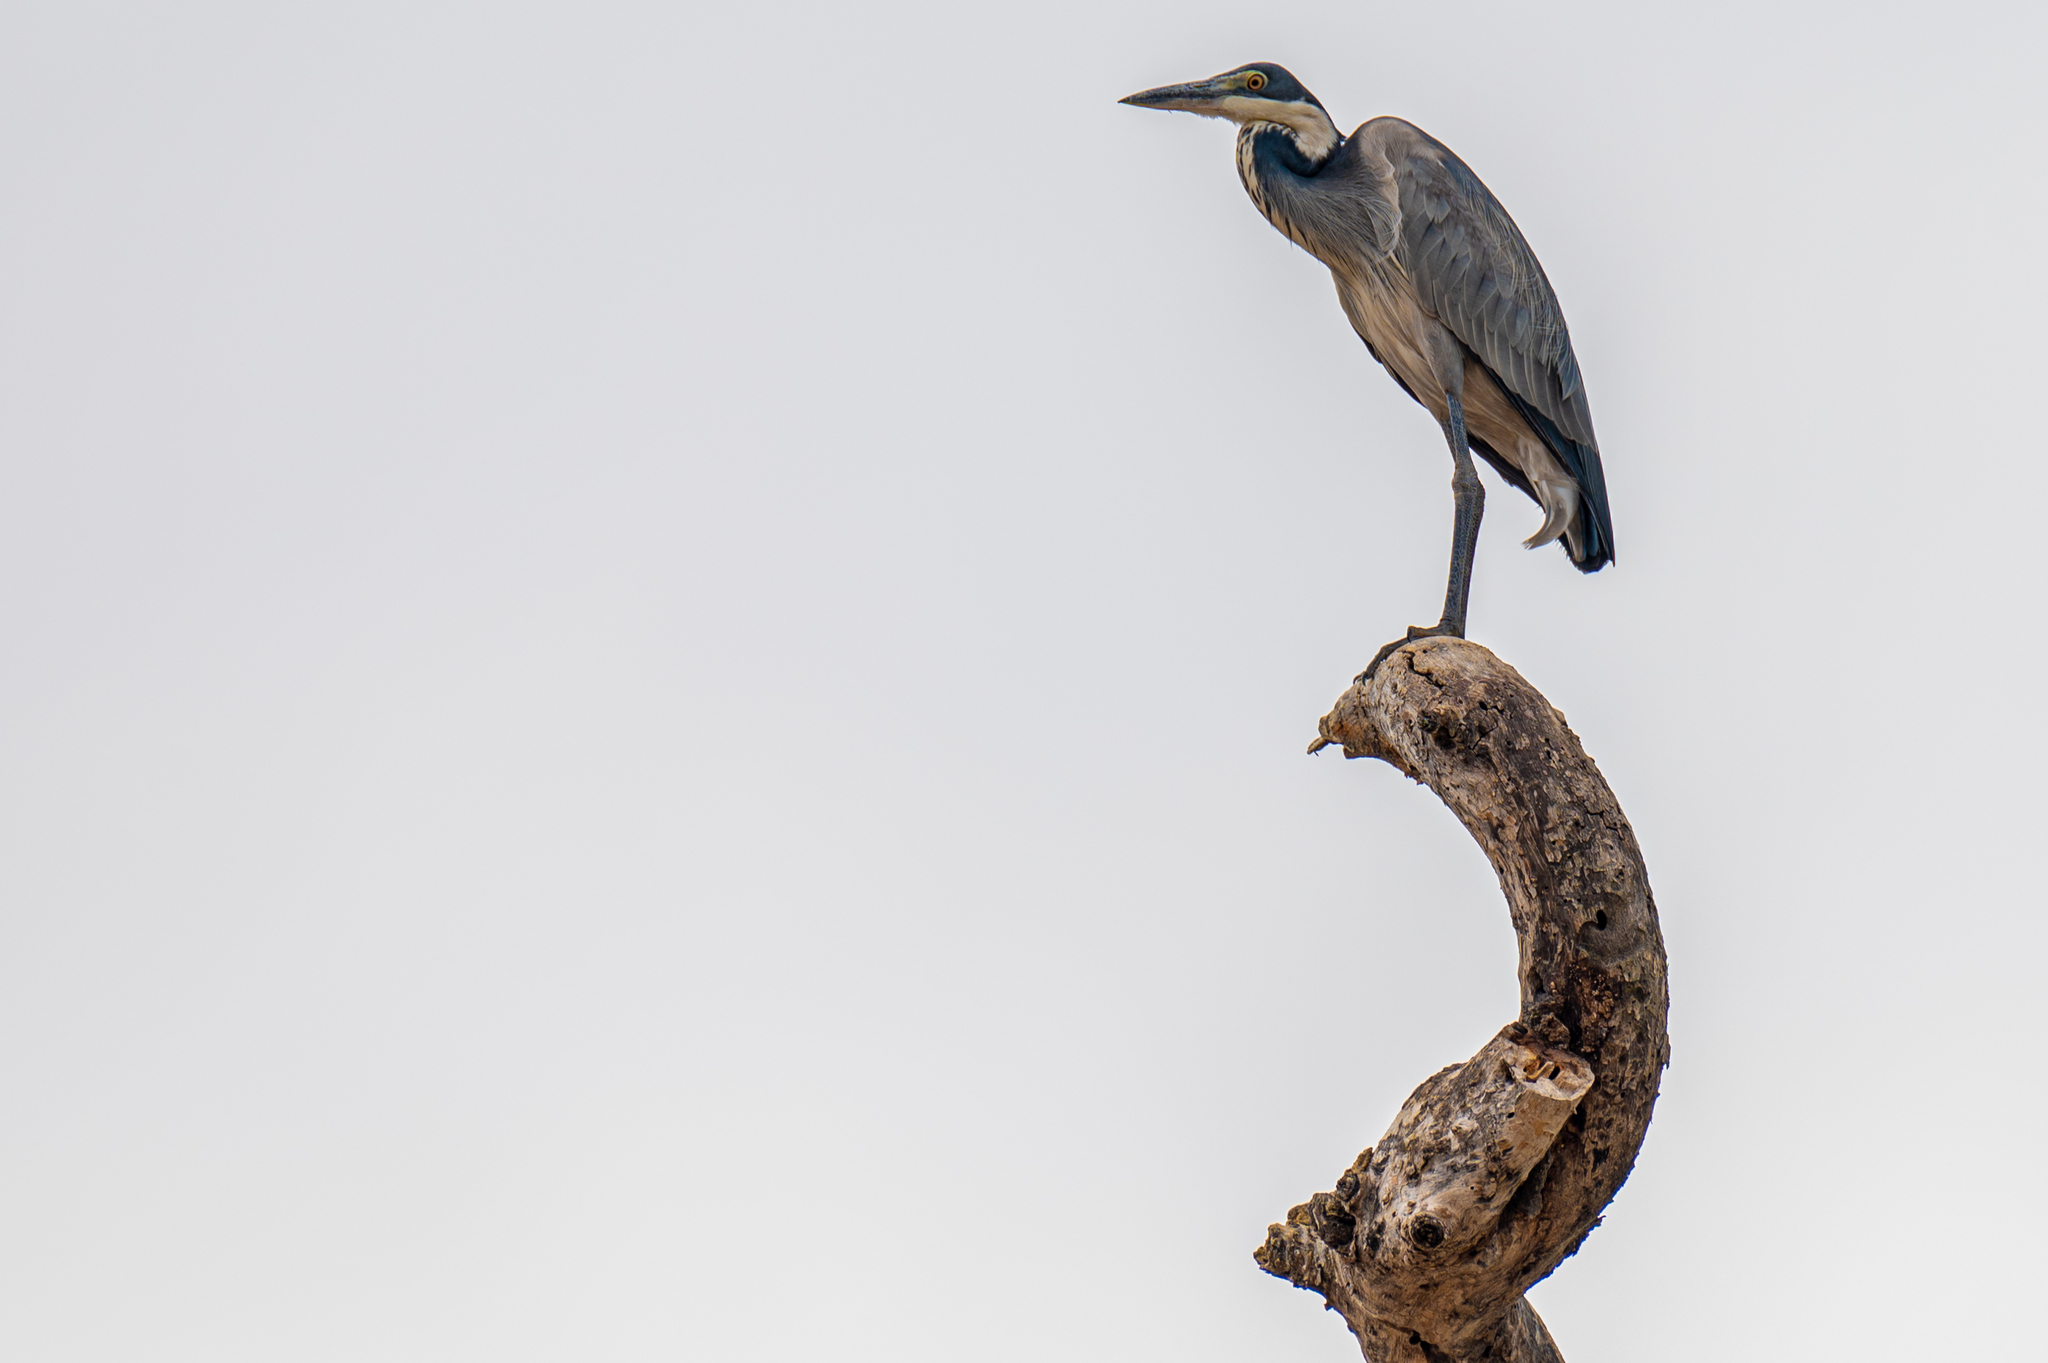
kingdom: Animalia
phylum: Chordata
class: Aves
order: Pelecaniformes
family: Ardeidae
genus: Ardea
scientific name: Ardea melanocephala
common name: Black-headed heron
